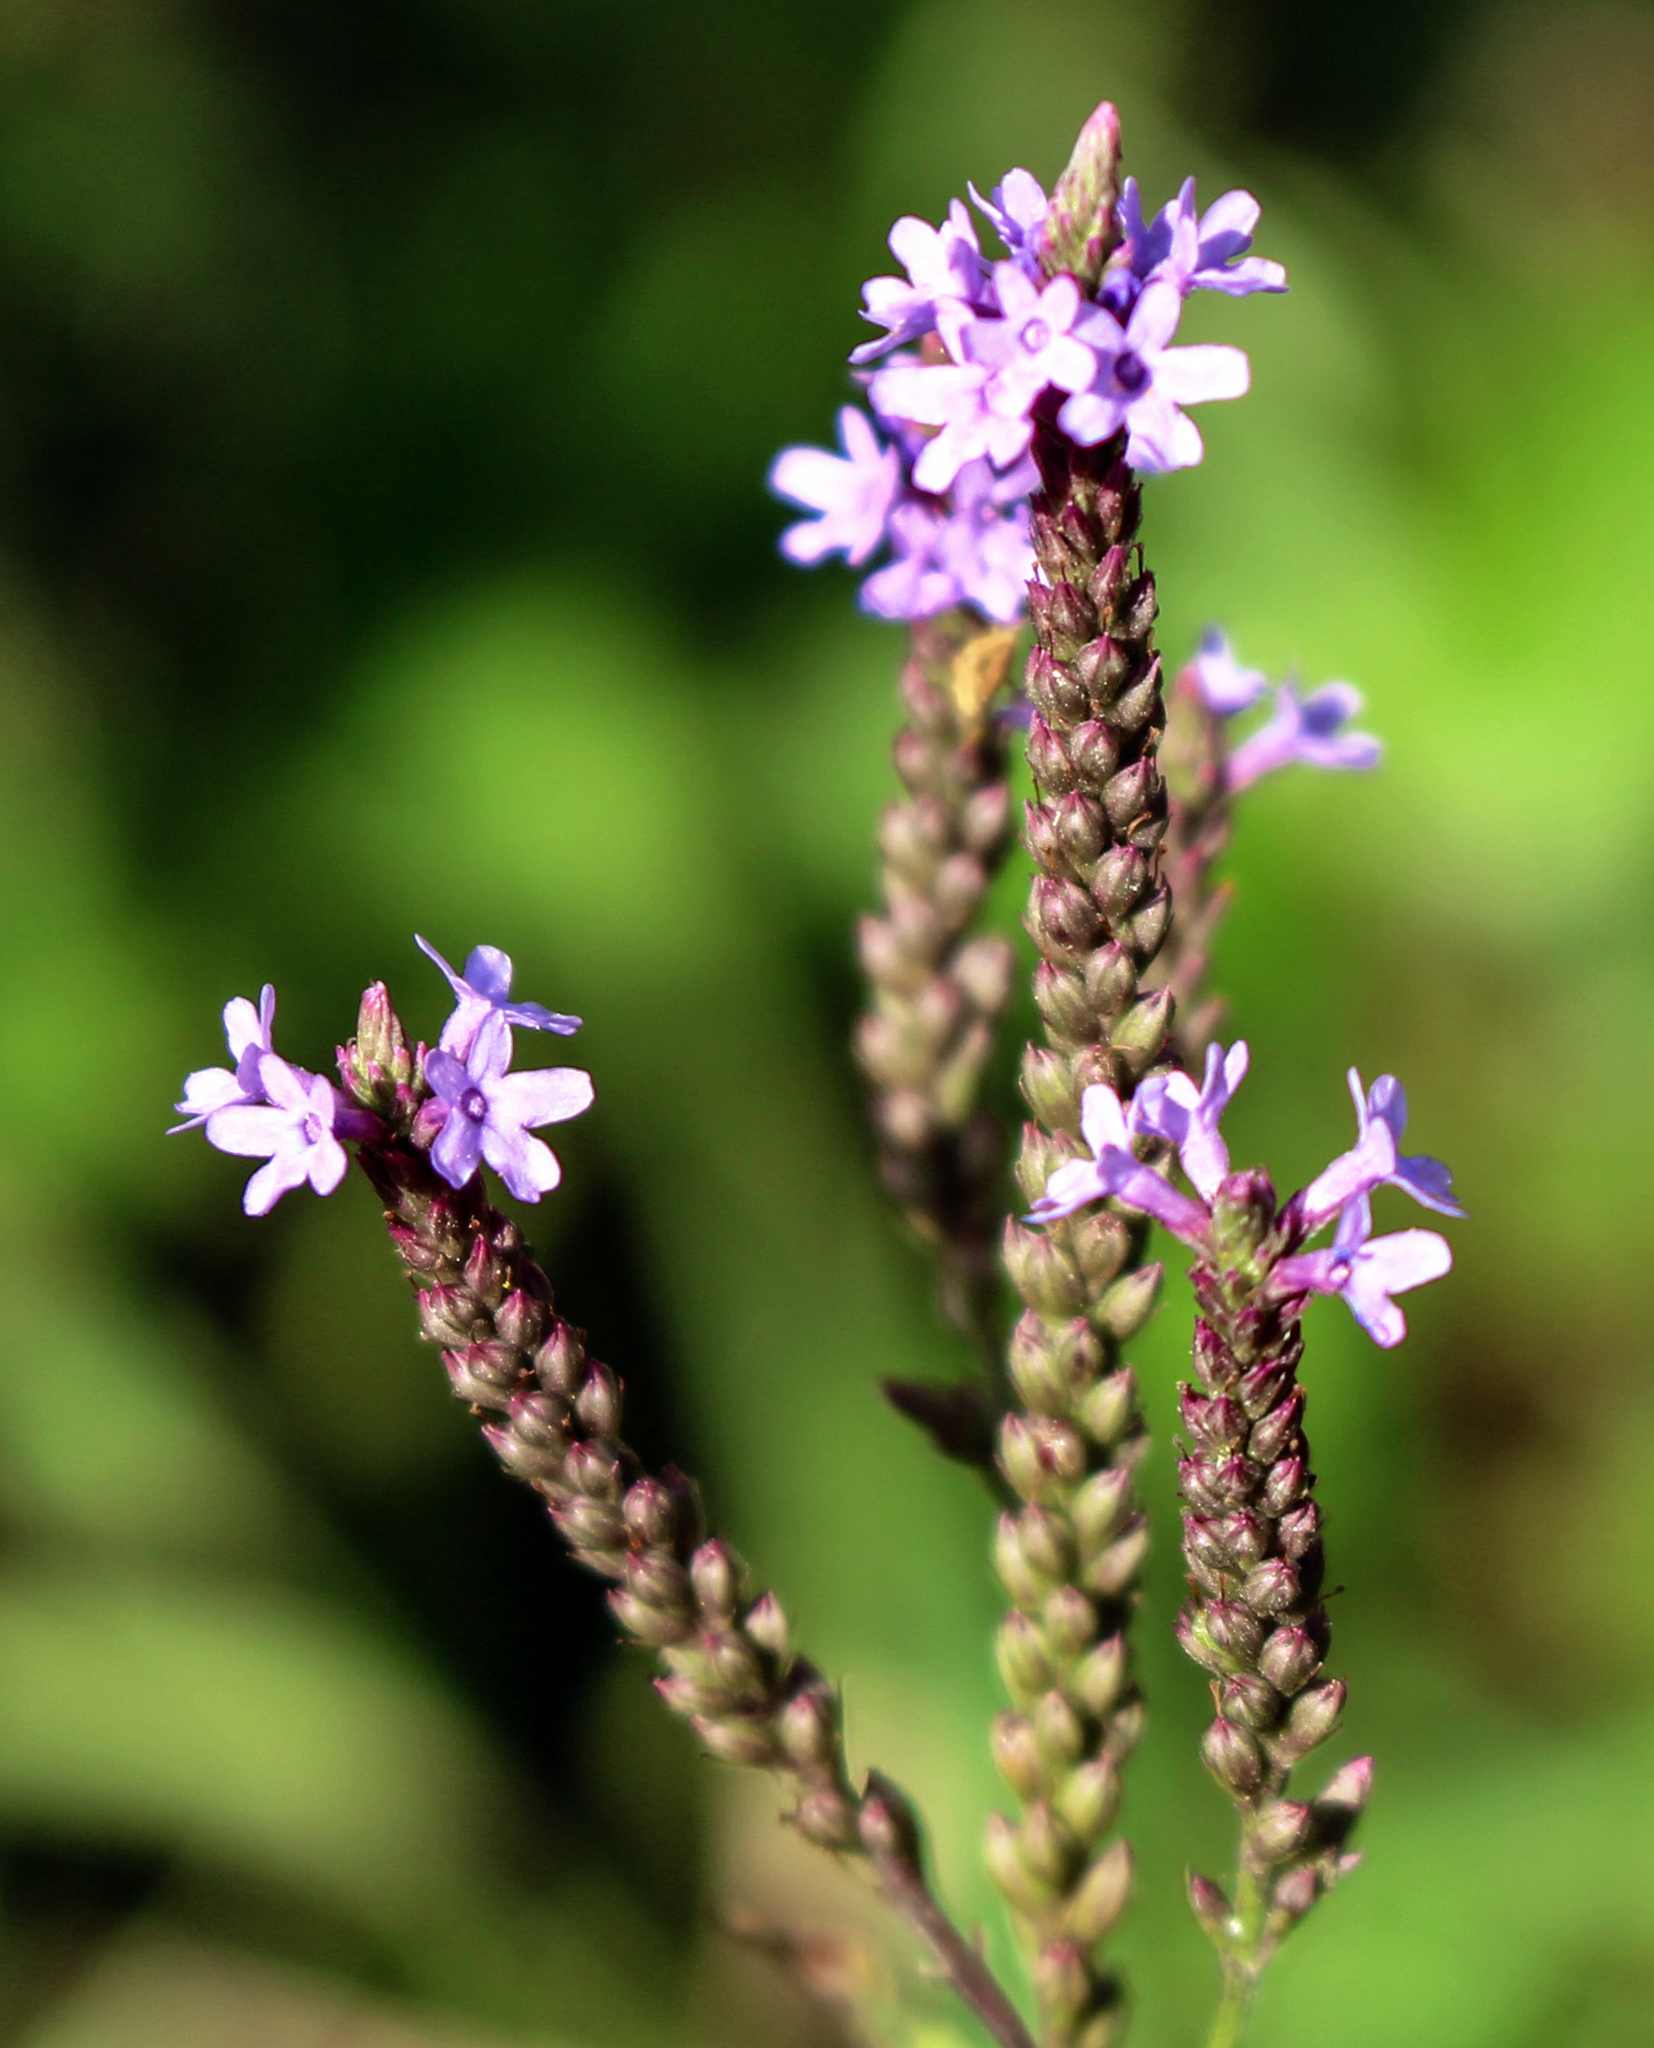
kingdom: Plantae
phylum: Tracheophyta
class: Magnoliopsida
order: Lamiales
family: Verbenaceae
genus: Verbena
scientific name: Verbena hastata
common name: American blue vervain
